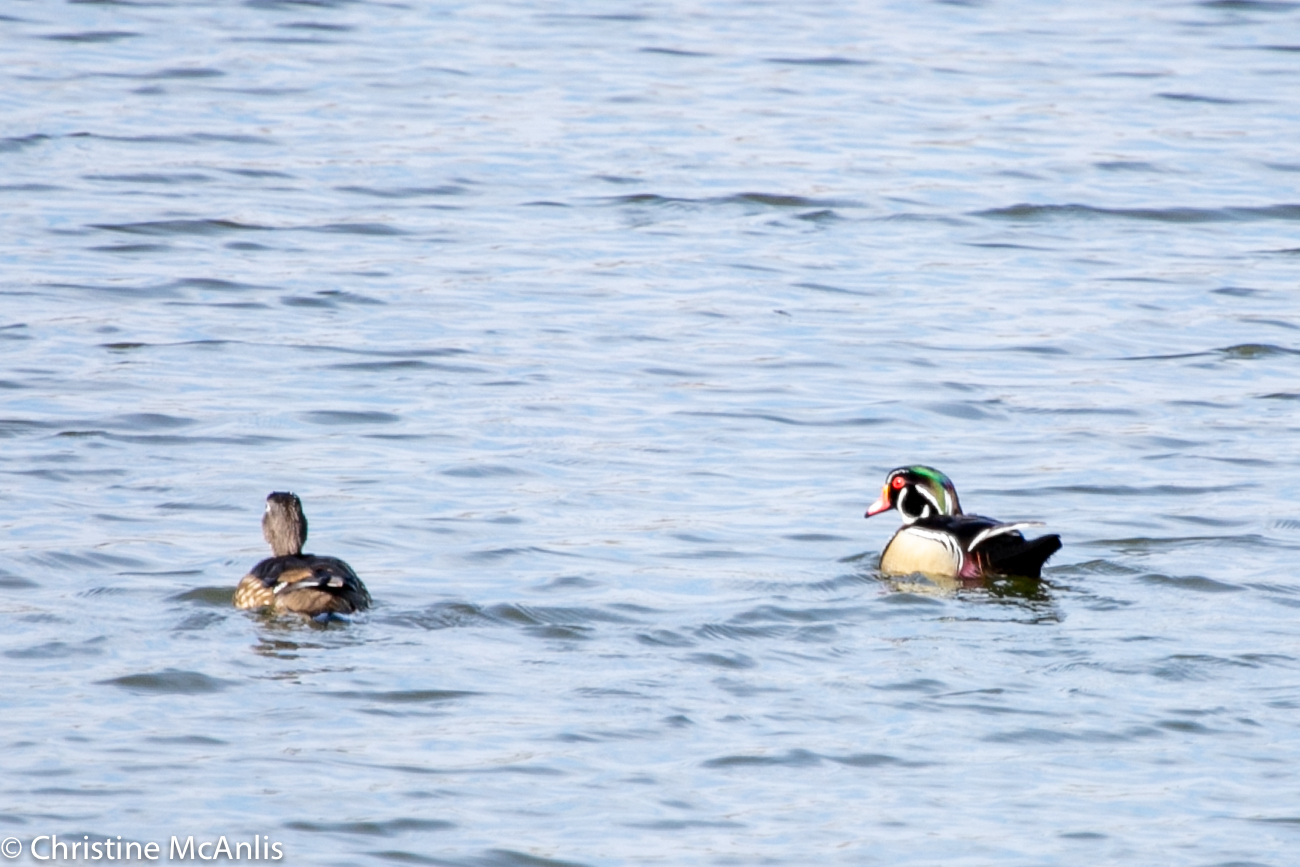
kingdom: Animalia
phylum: Chordata
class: Aves
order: Anseriformes
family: Anatidae
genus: Aix
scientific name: Aix sponsa
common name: Wood duck
